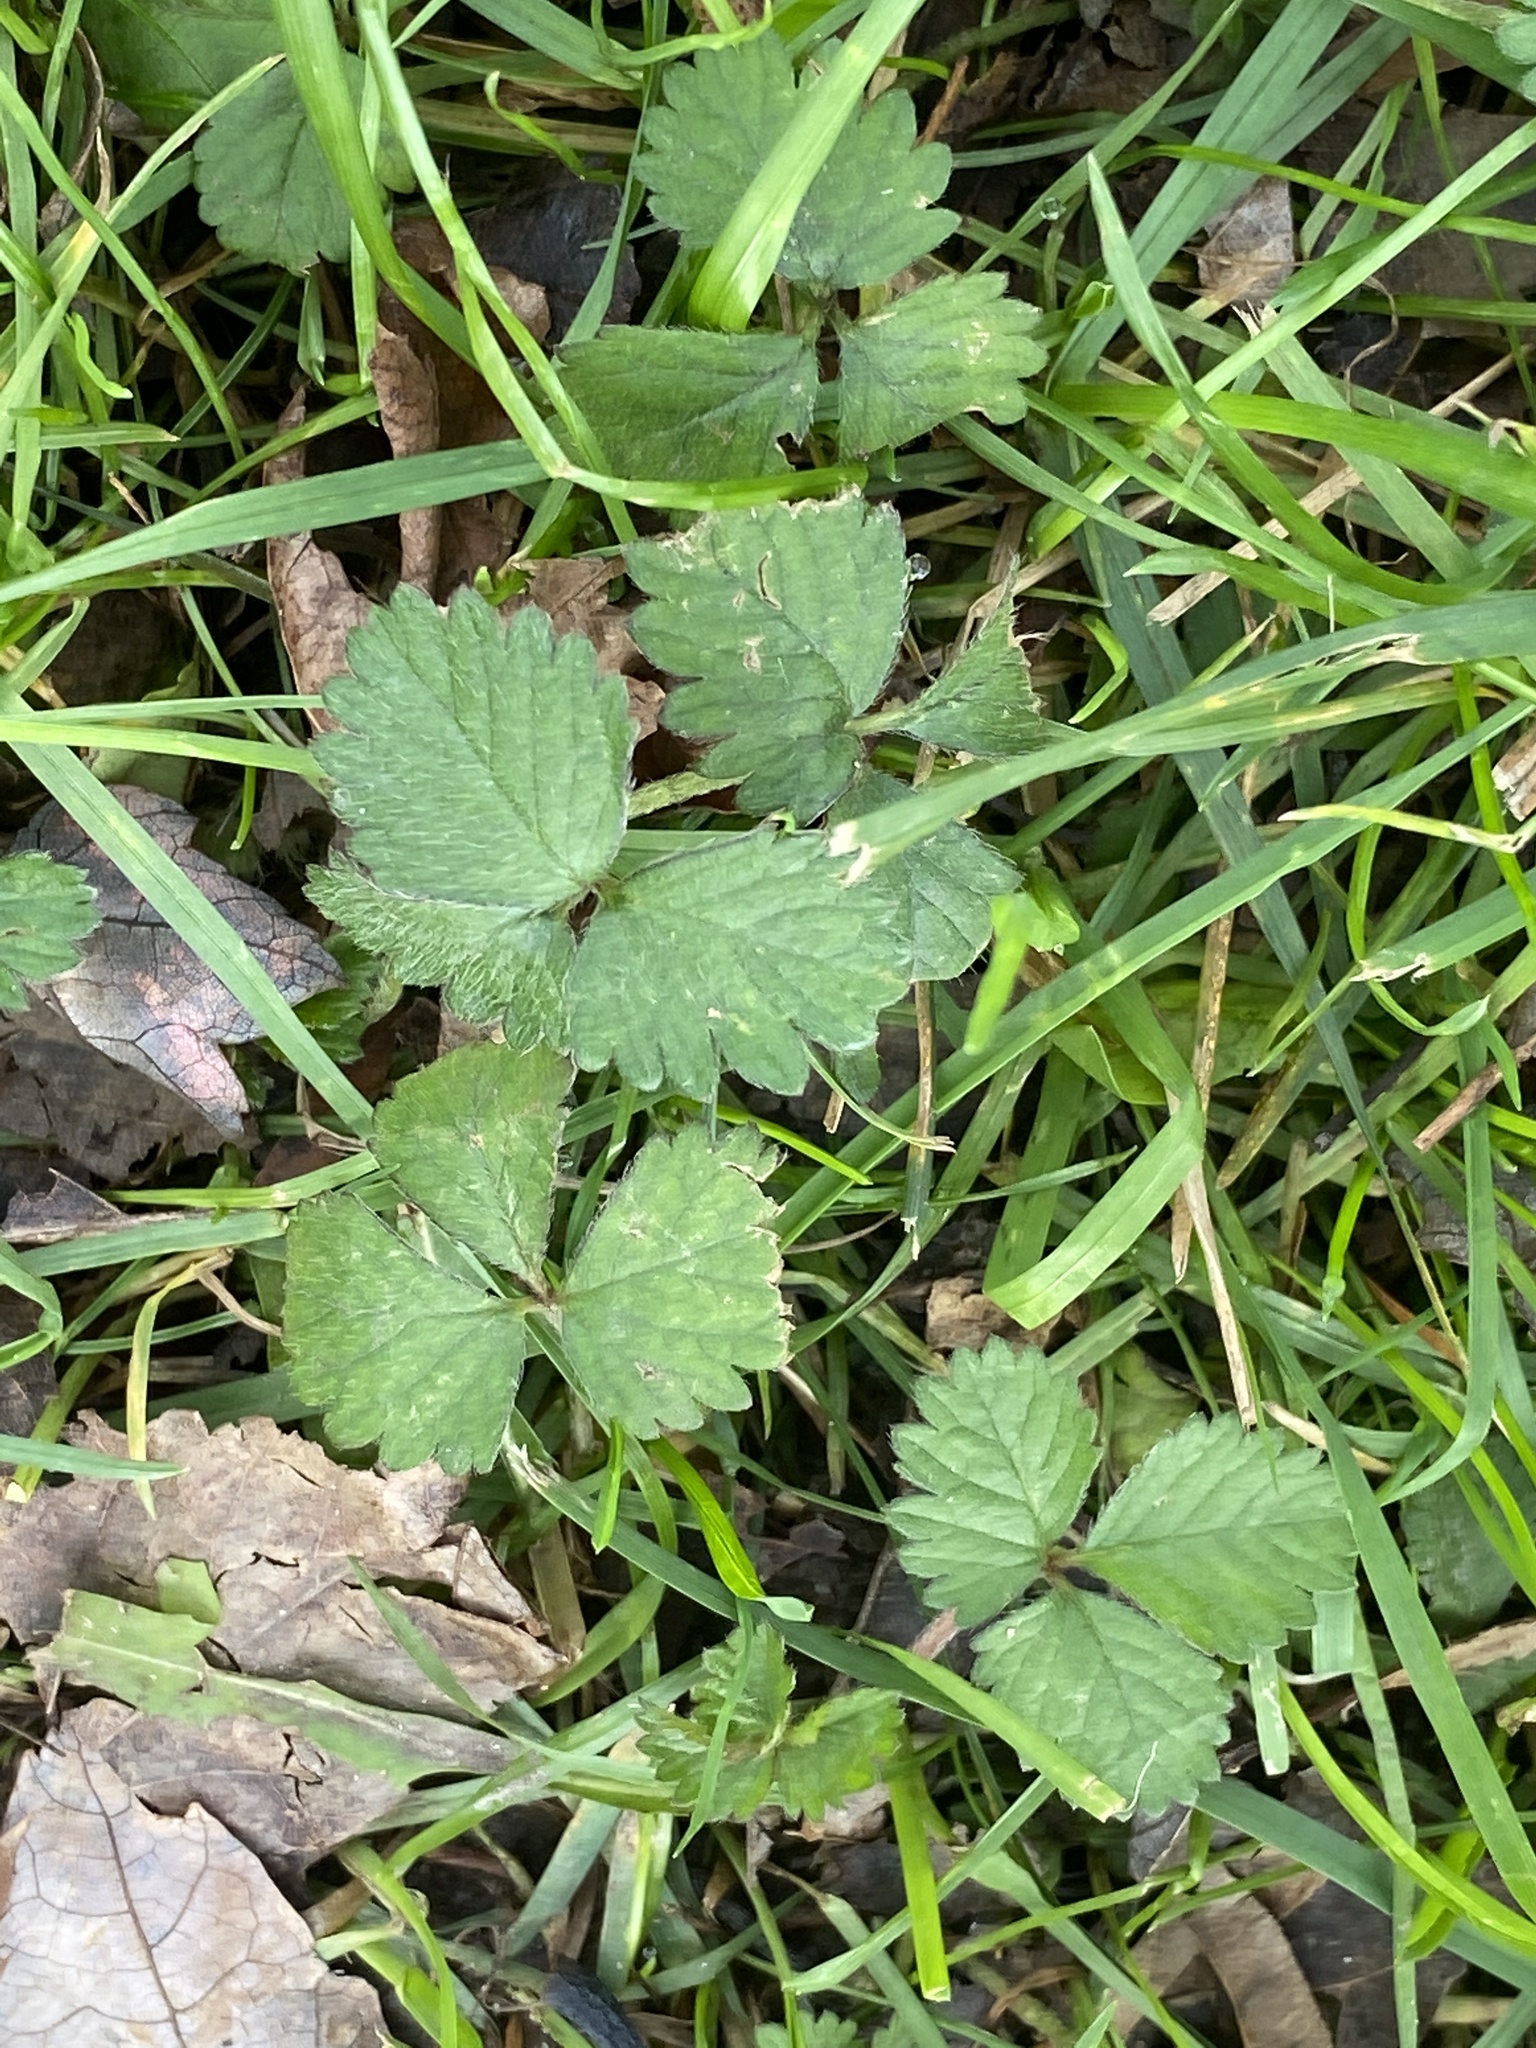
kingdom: Plantae
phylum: Tracheophyta
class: Magnoliopsida
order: Rosales
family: Rosaceae
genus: Potentilla
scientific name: Potentilla indica
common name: Yellow-flowered strawberry
